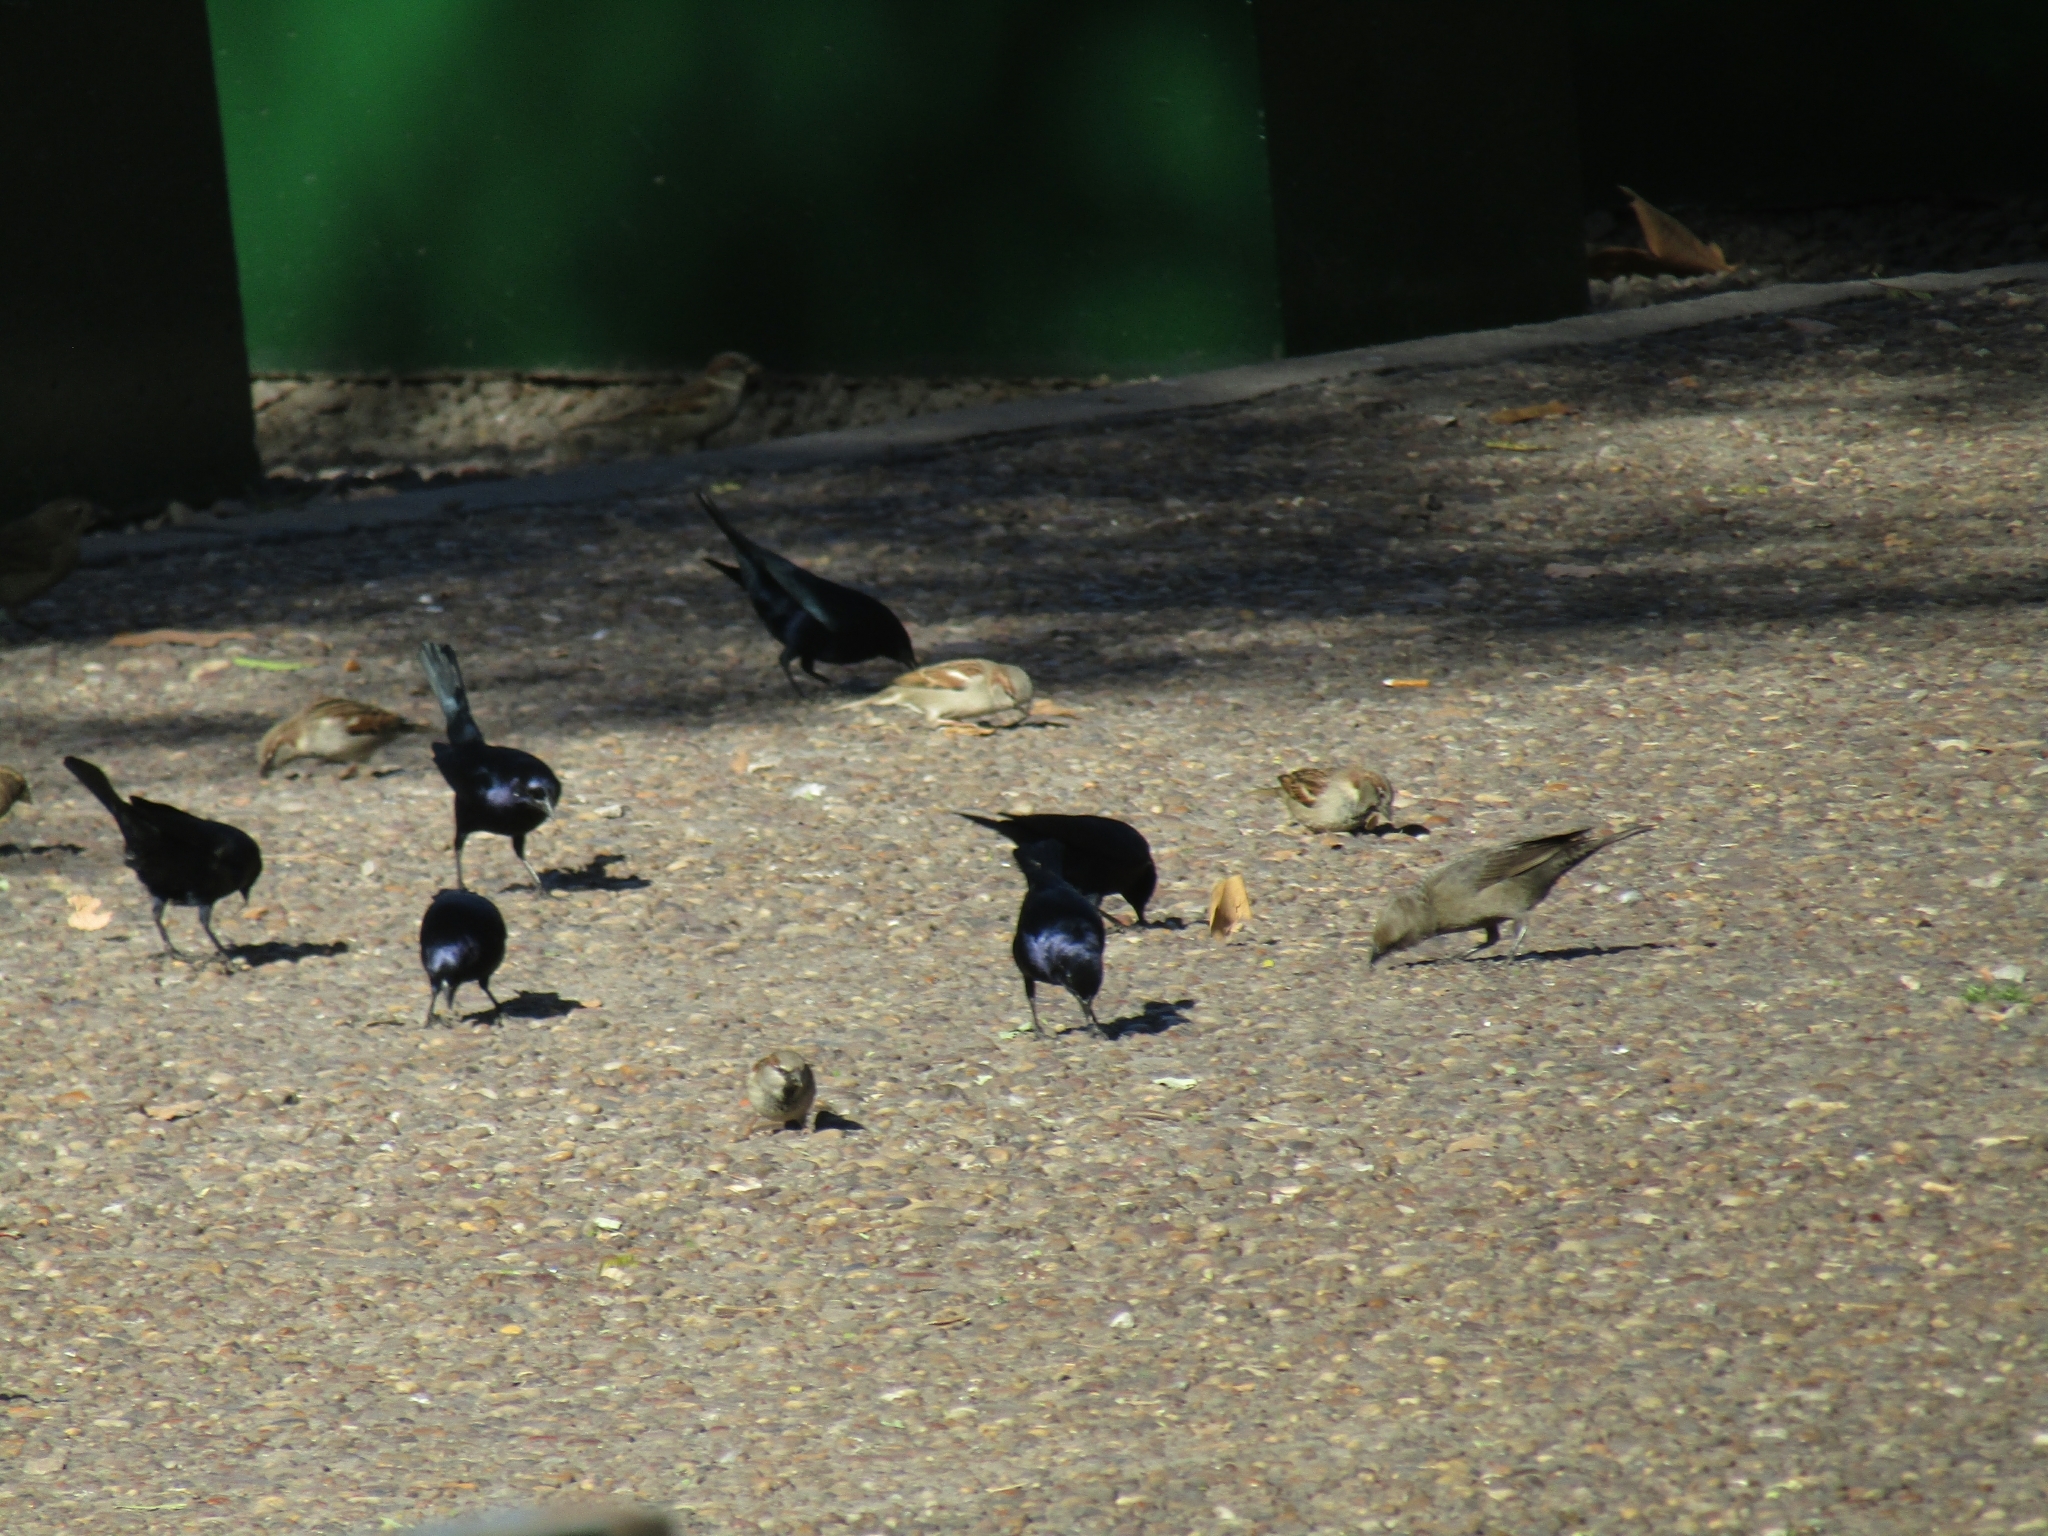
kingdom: Animalia
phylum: Chordata
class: Aves
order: Passeriformes
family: Icteridae
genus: Molothrus
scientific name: Molothrus bonariensis
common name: Shiny cowbird
